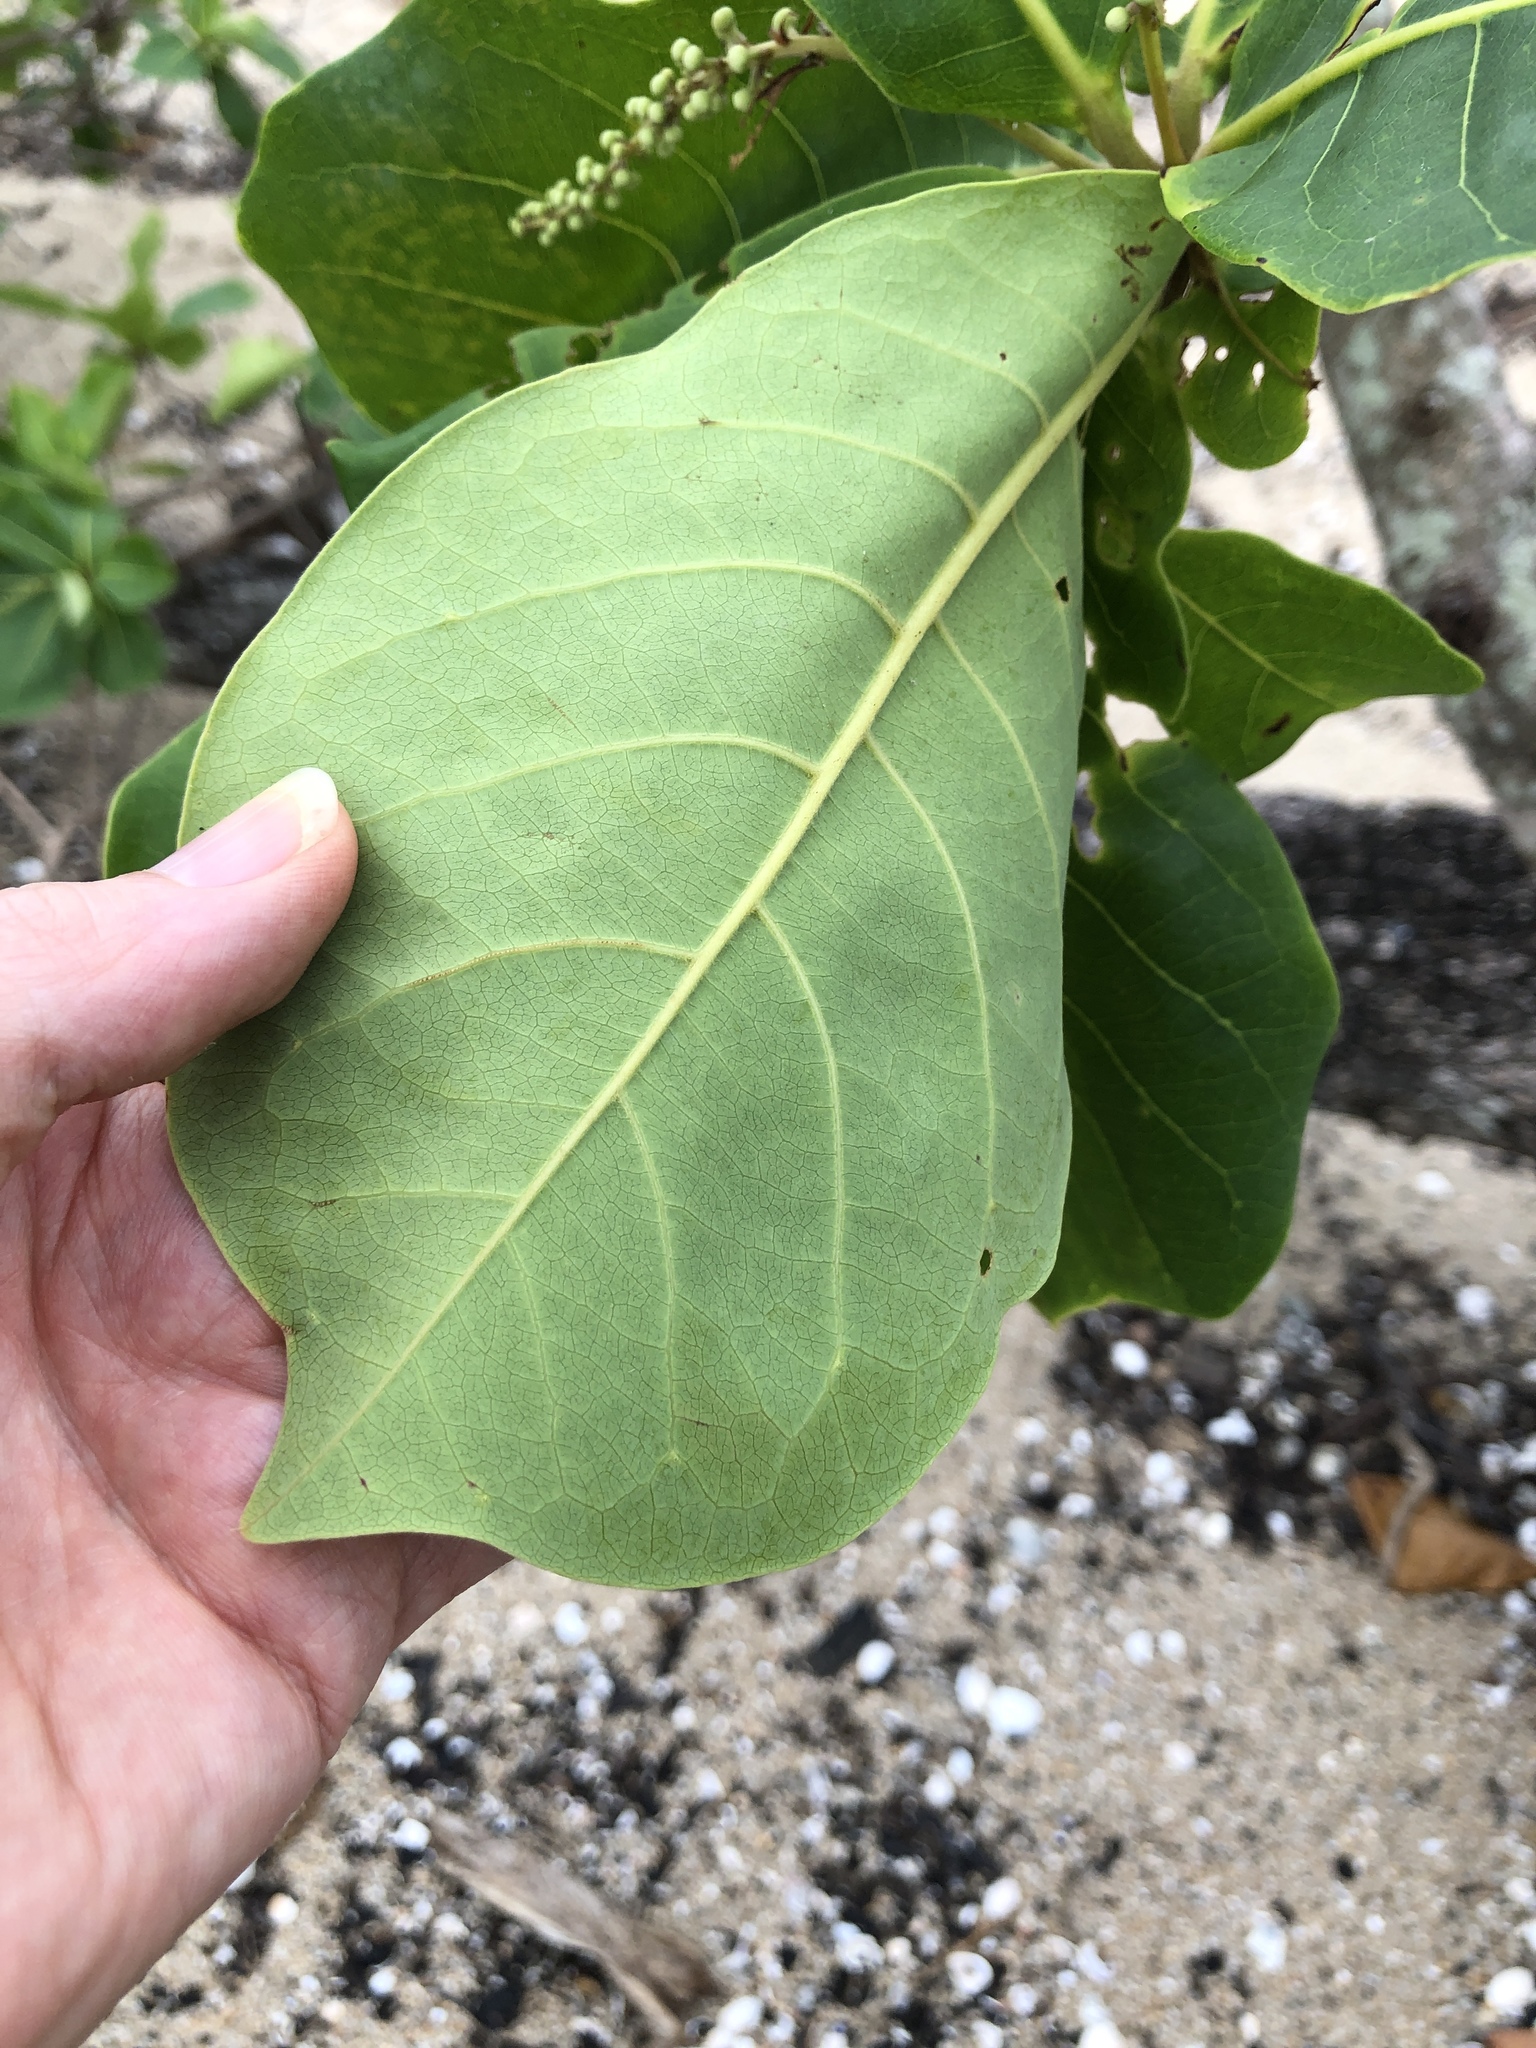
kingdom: Plantae
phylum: Tracheophyta
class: Magnoliopsida
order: Myrtales
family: Combretaceae
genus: Terminalia
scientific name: Terminalia catappa
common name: Tropical almond
